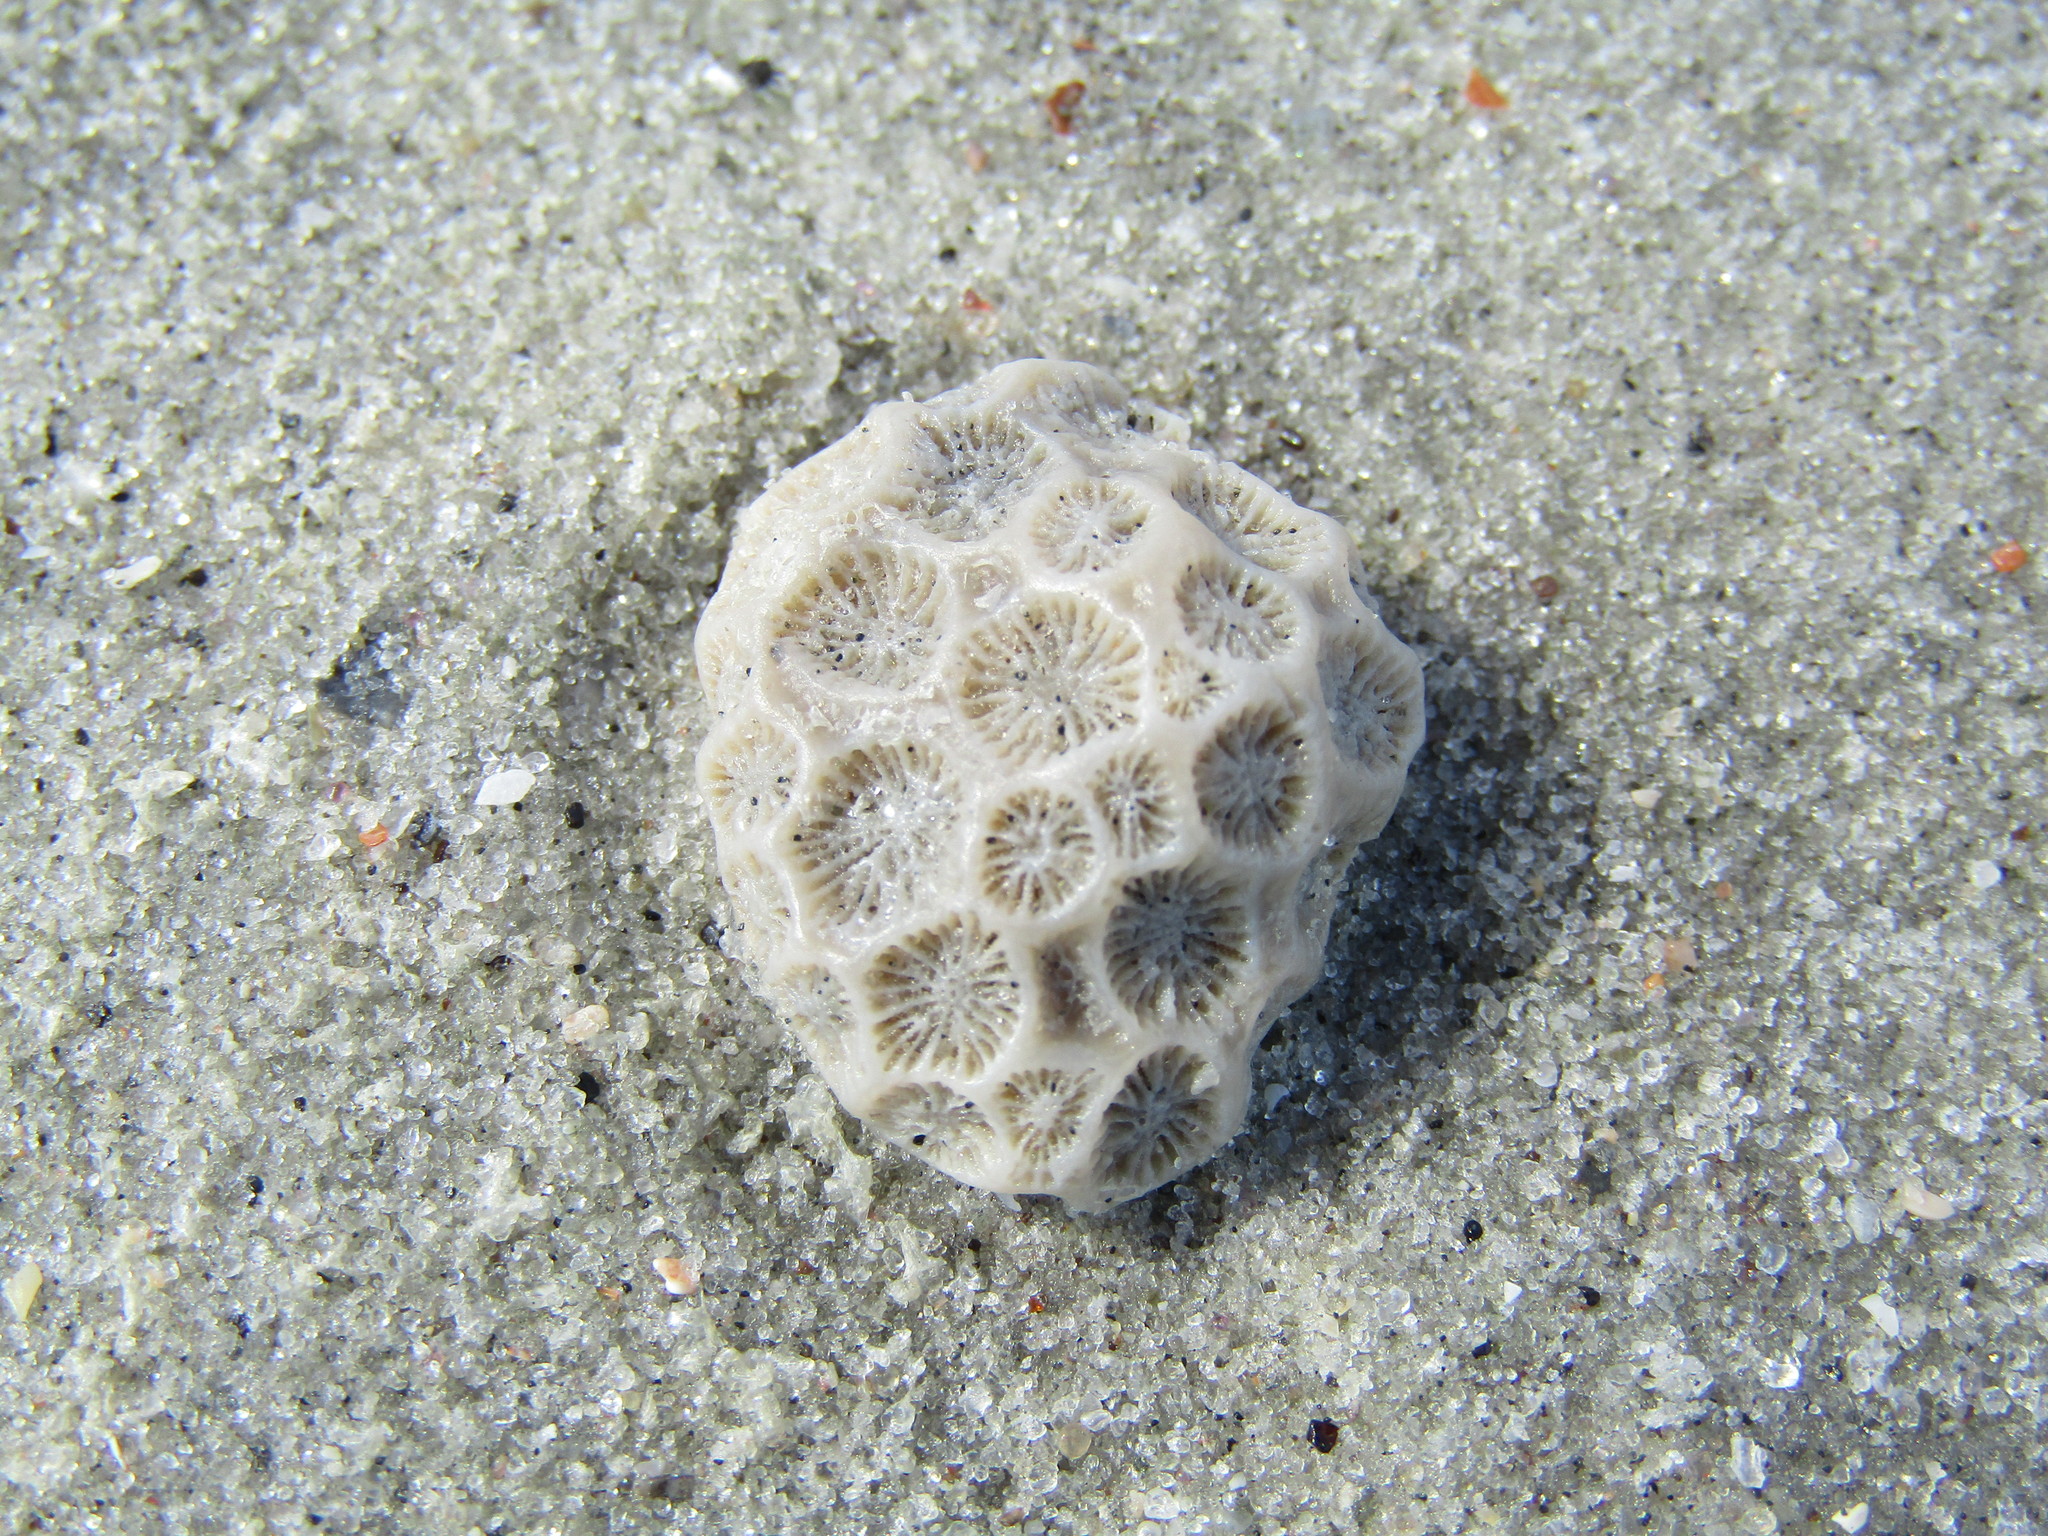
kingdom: Animalia
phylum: Cnidaria
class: Anthozoa
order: Scleractinia
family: Astrangiidae
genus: Astrangia
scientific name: Astrangia poculata
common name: Northern star coral
